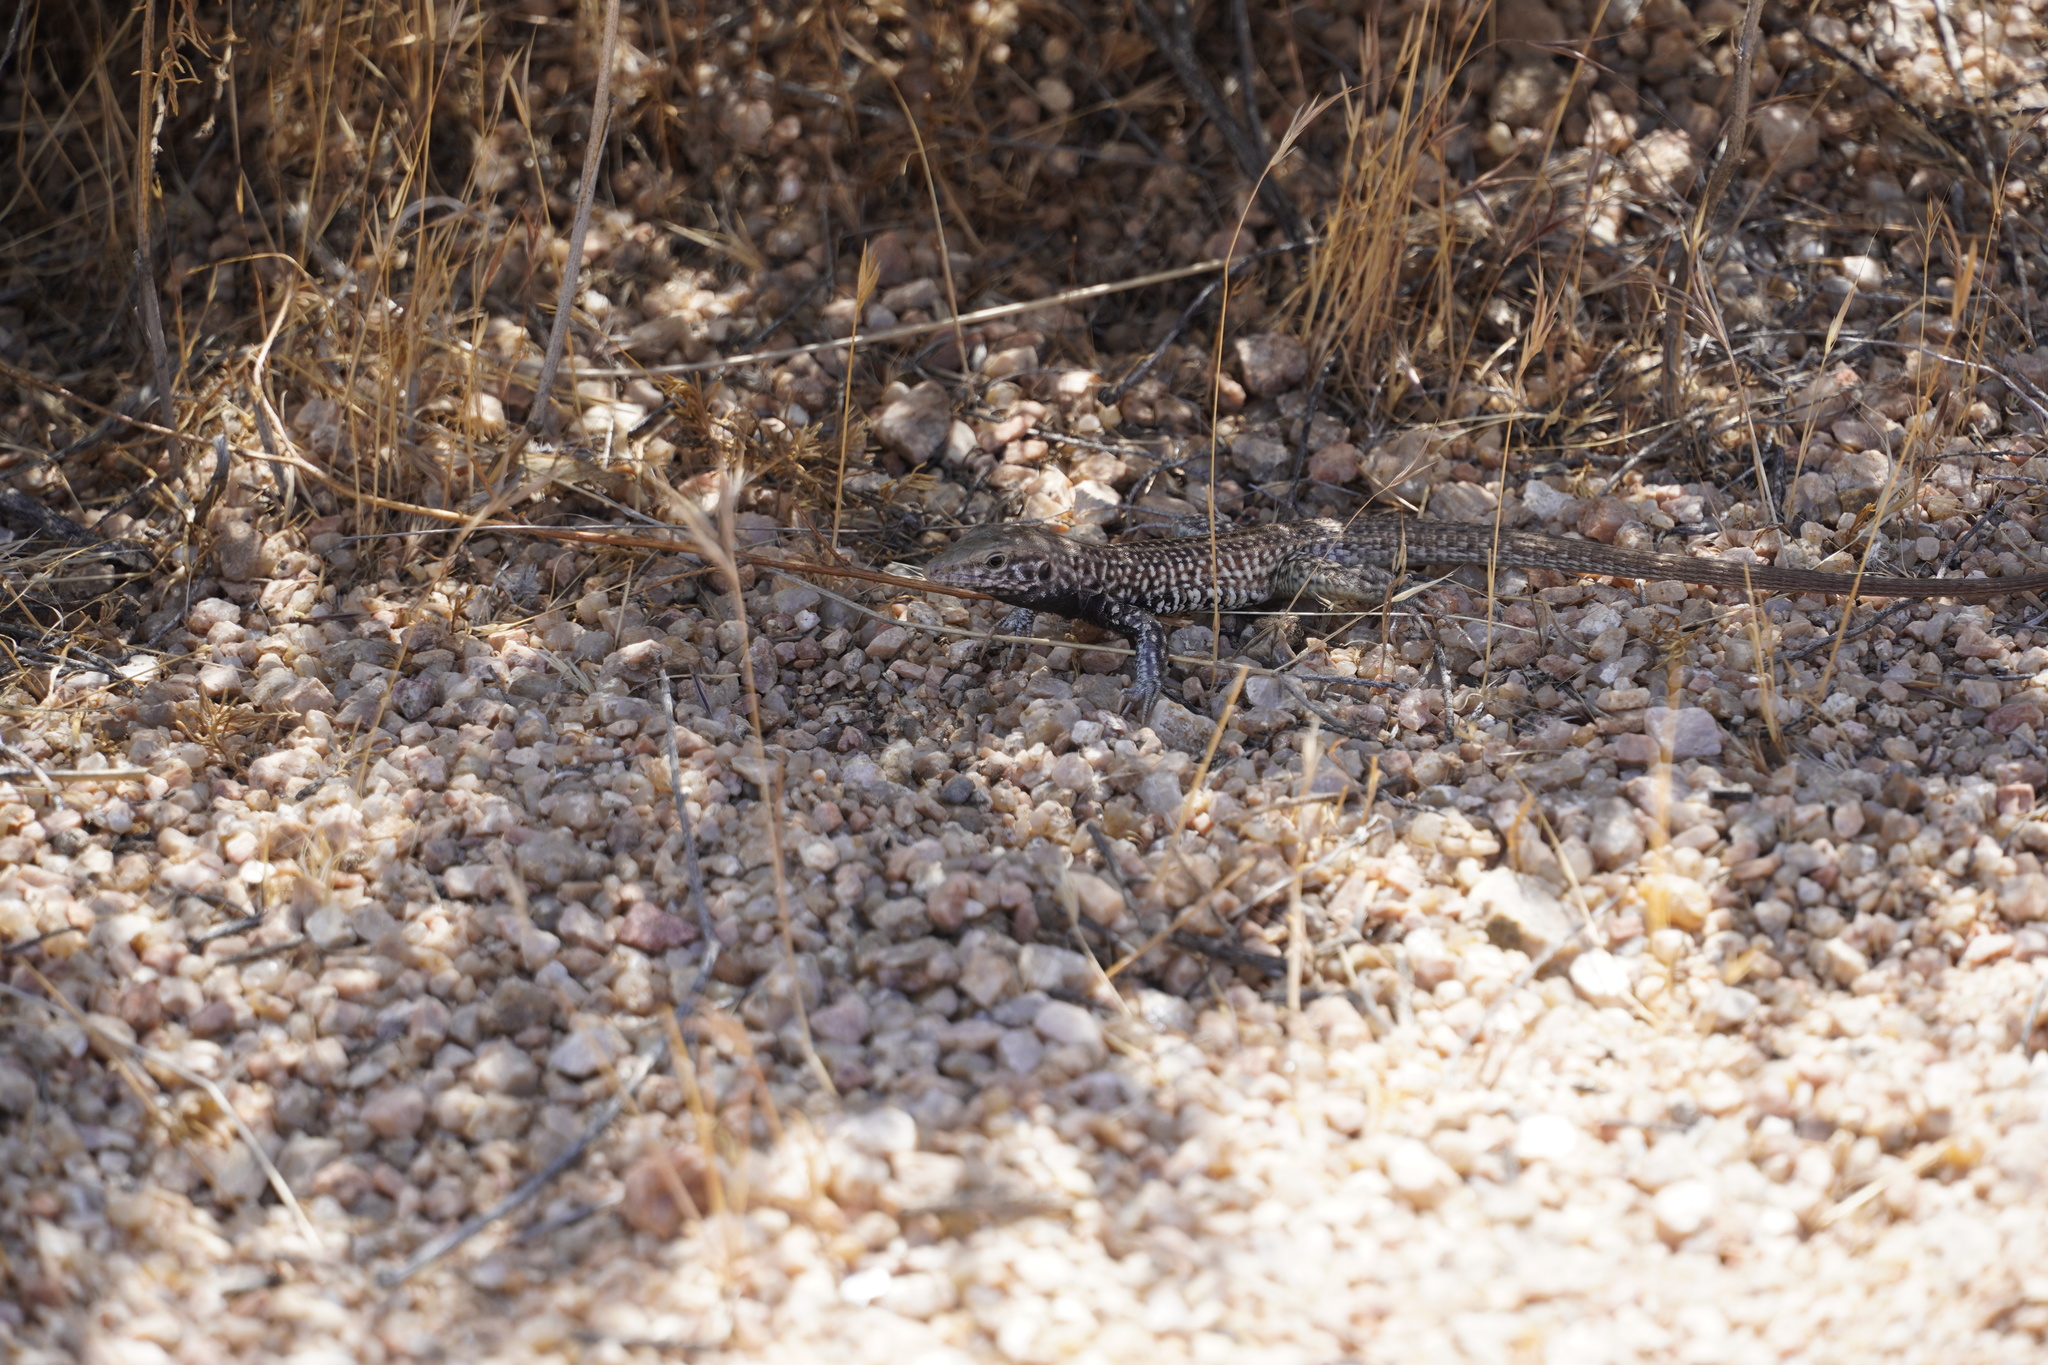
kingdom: Animalia
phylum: Chordata
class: Squamata
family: Teiidae
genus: Aspidoscelis
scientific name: Aspidoscelis tigris
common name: Tiger whiptail
